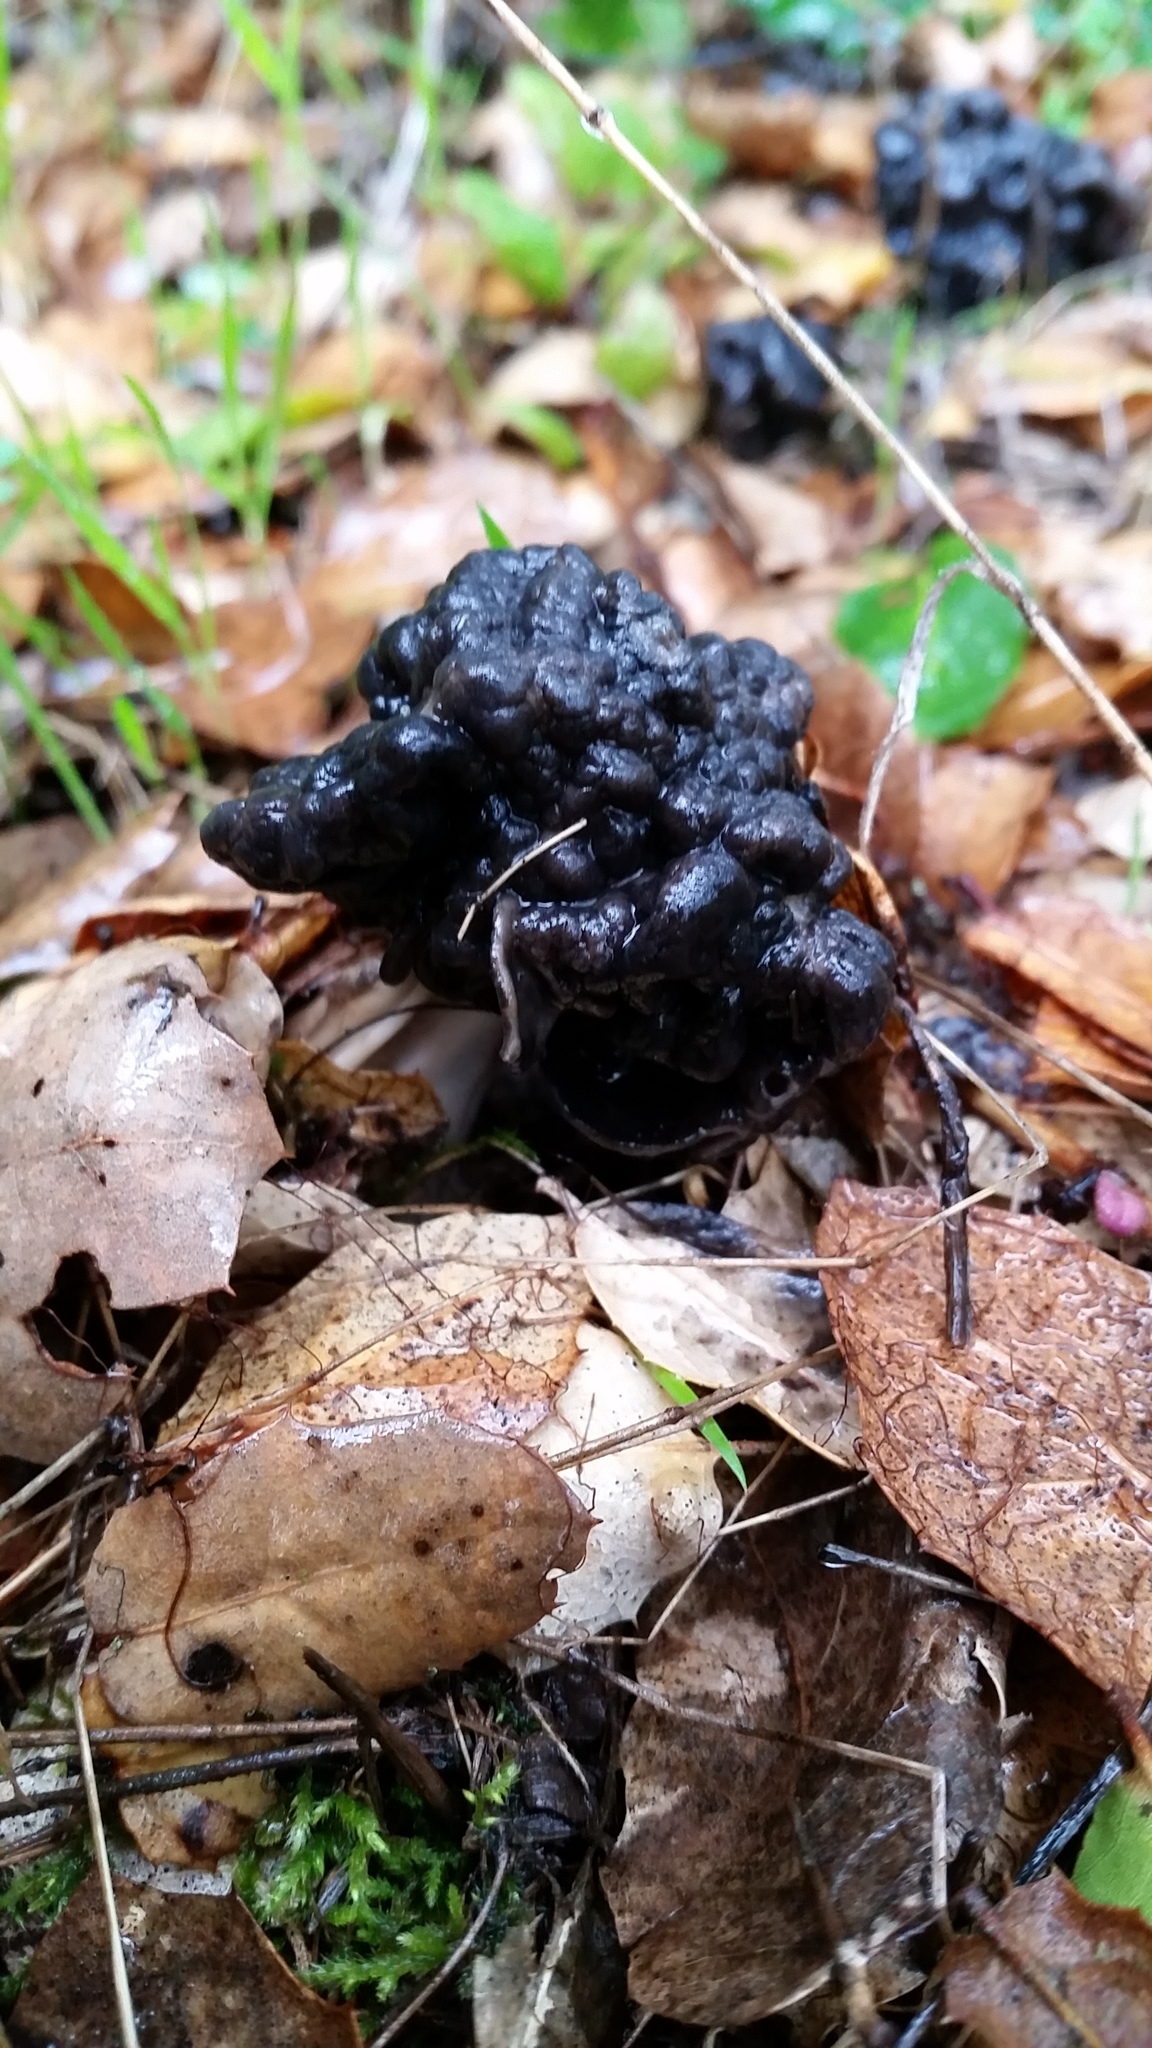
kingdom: Fungi
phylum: Ascomycota
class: Pezizomycetes
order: Pezizales
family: Helvellaceae
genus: Helvella
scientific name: Helvella dryophila
